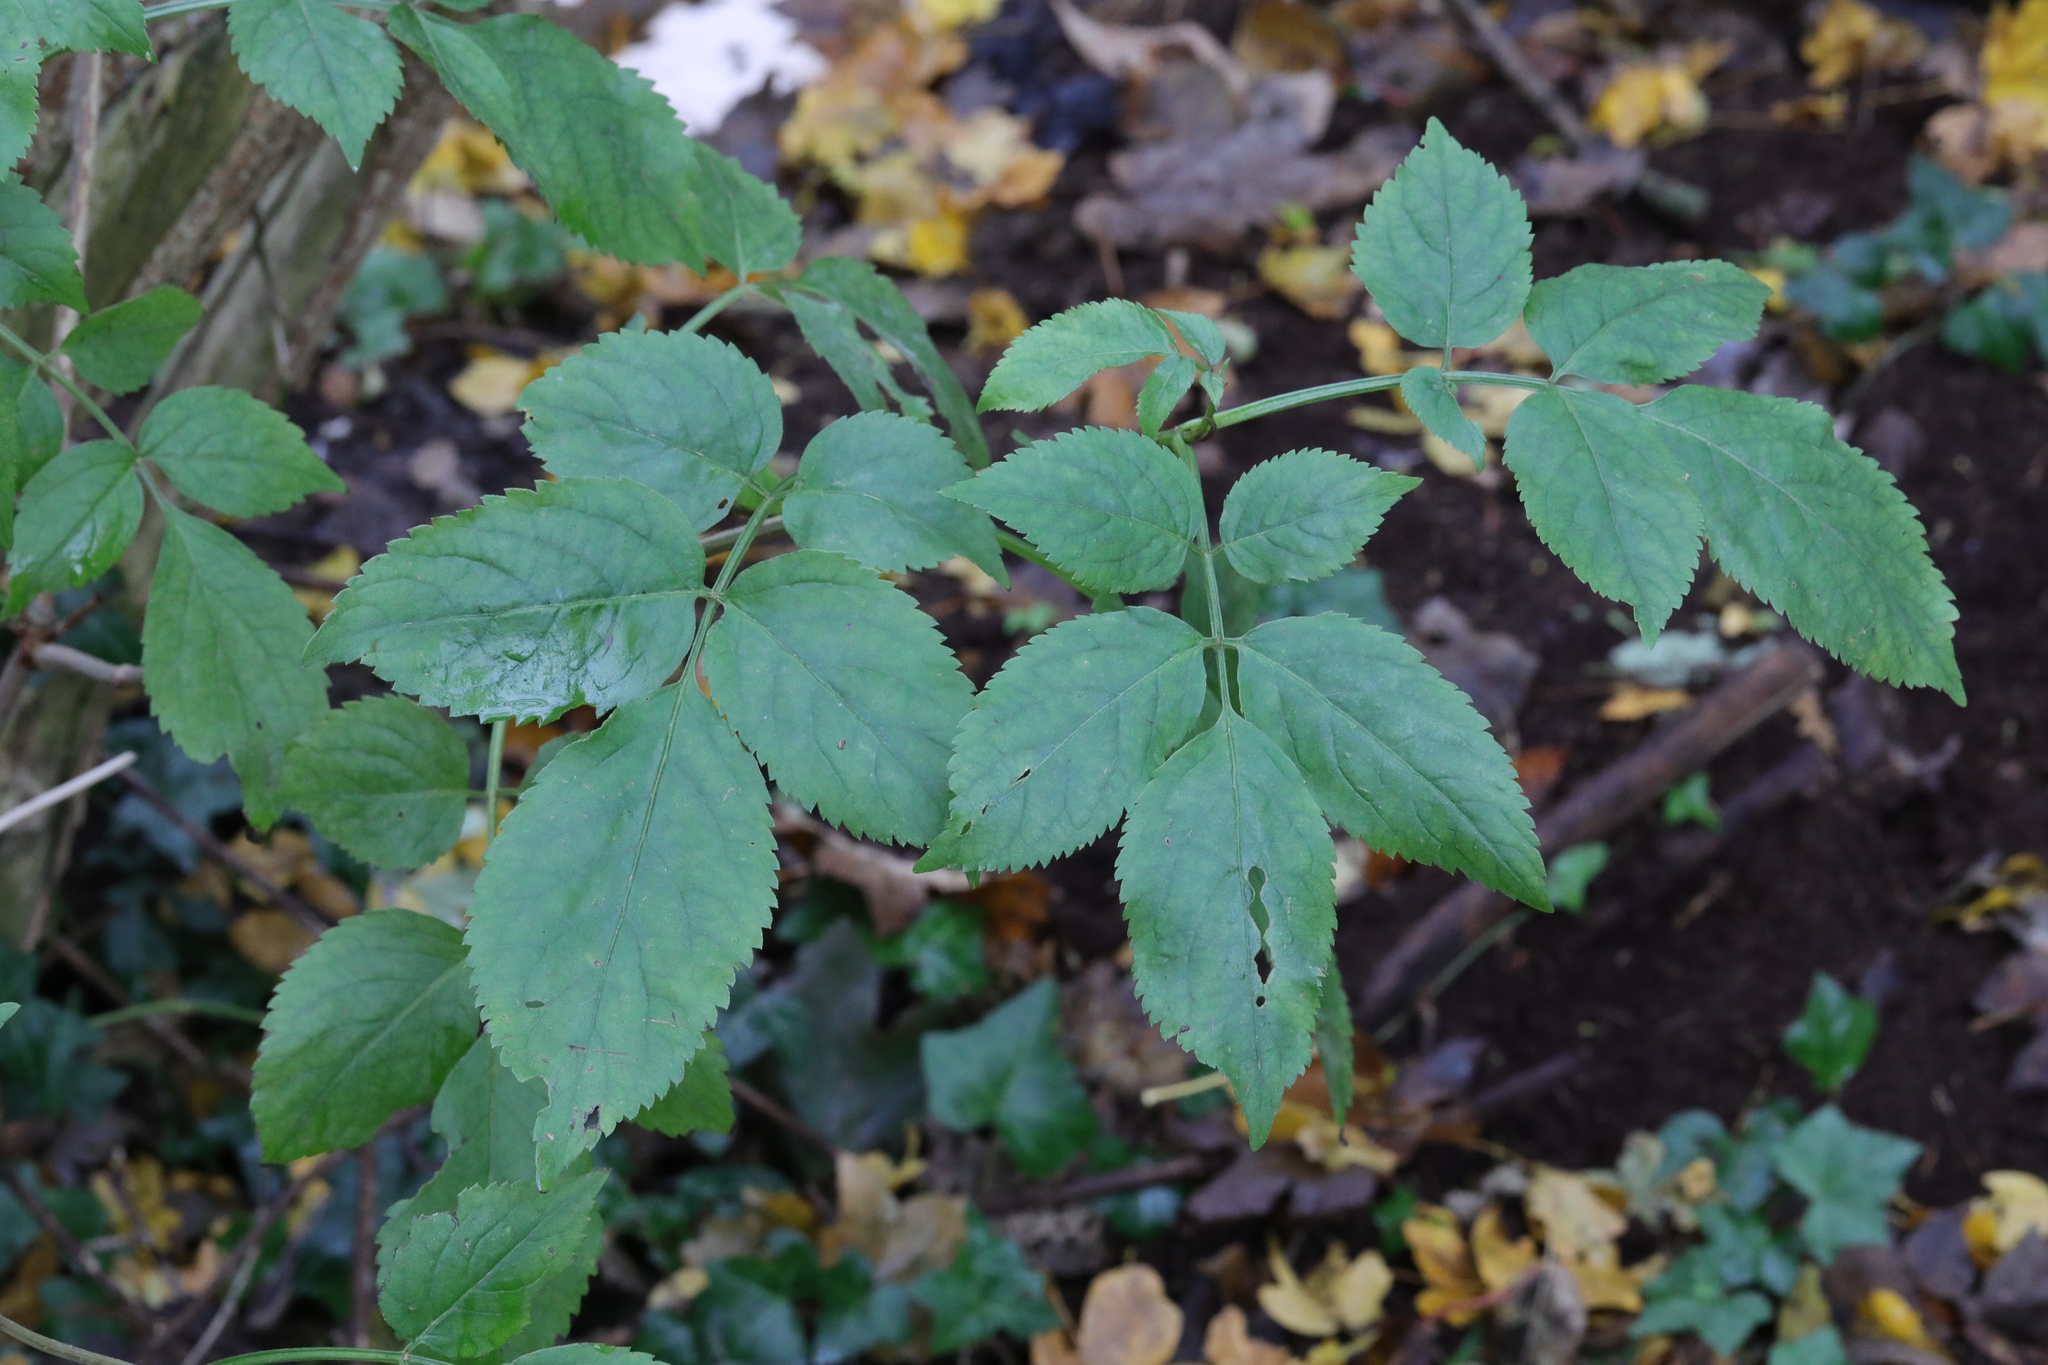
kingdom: Plantae
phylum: Tracheophyta
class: Magnoliopsida
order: Dipsacales
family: Viburnaceae
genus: Sambucus
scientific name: Sambucus nigra
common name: Elder
